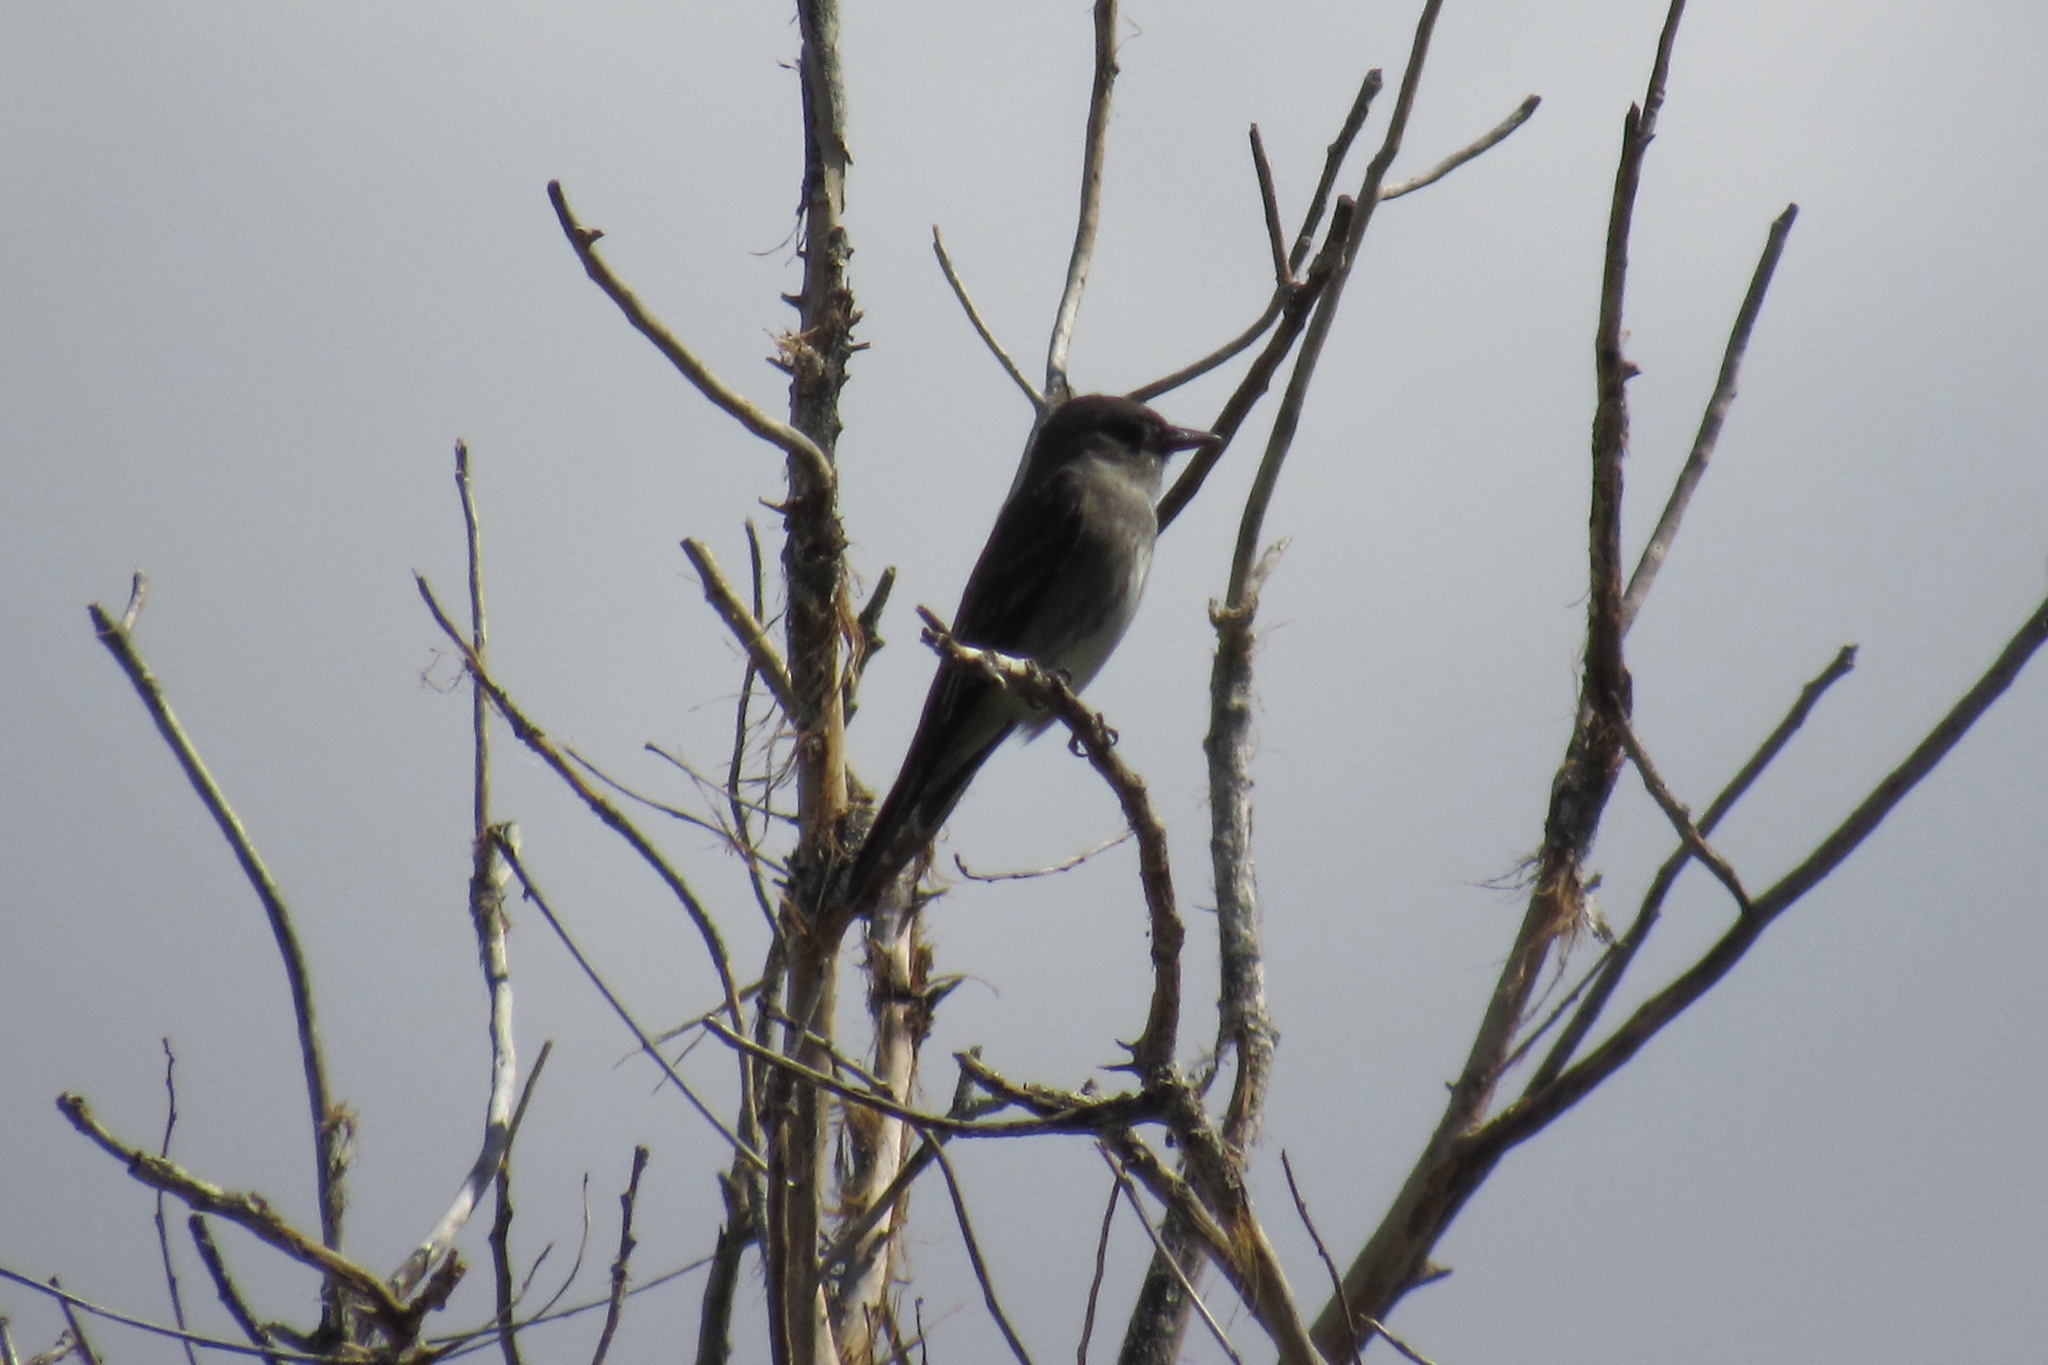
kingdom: Animalia
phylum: Chordata
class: Aves
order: Passeriformes
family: Tyrannidae
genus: Contopus
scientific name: Contopus sordidulus
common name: Western wood-pewee
